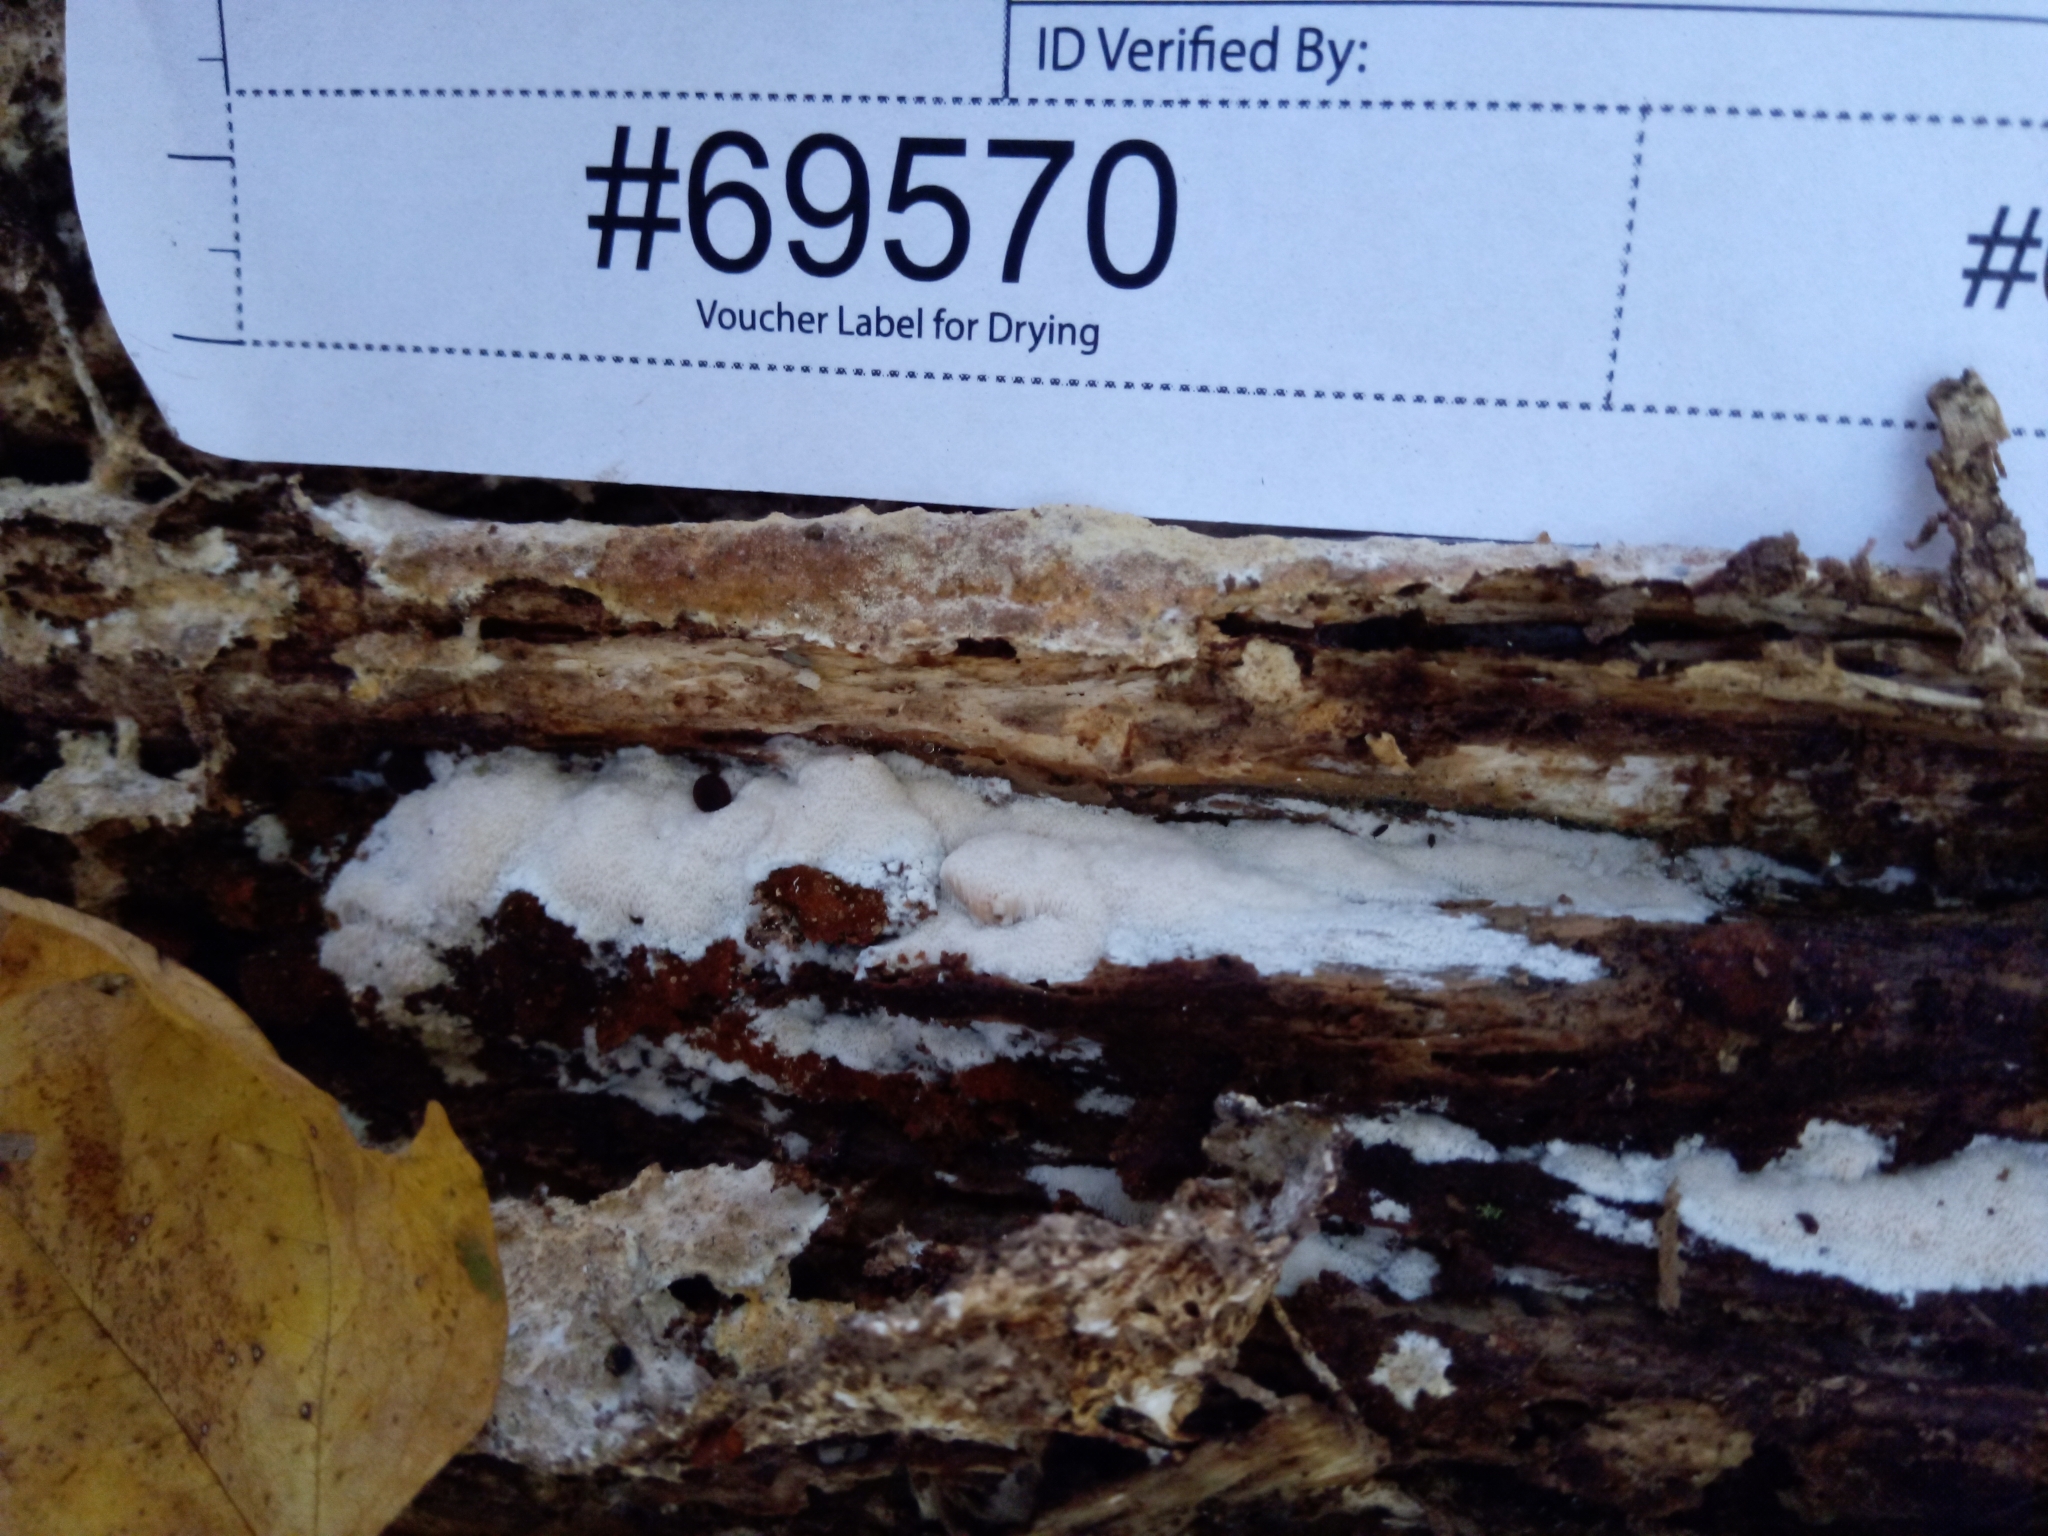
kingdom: Fungi
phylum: Basidiomycota
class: Agaricomycetes
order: Polyporales
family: Meruliaceae
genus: Mycoacia
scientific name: Mycoacia gilvescens
